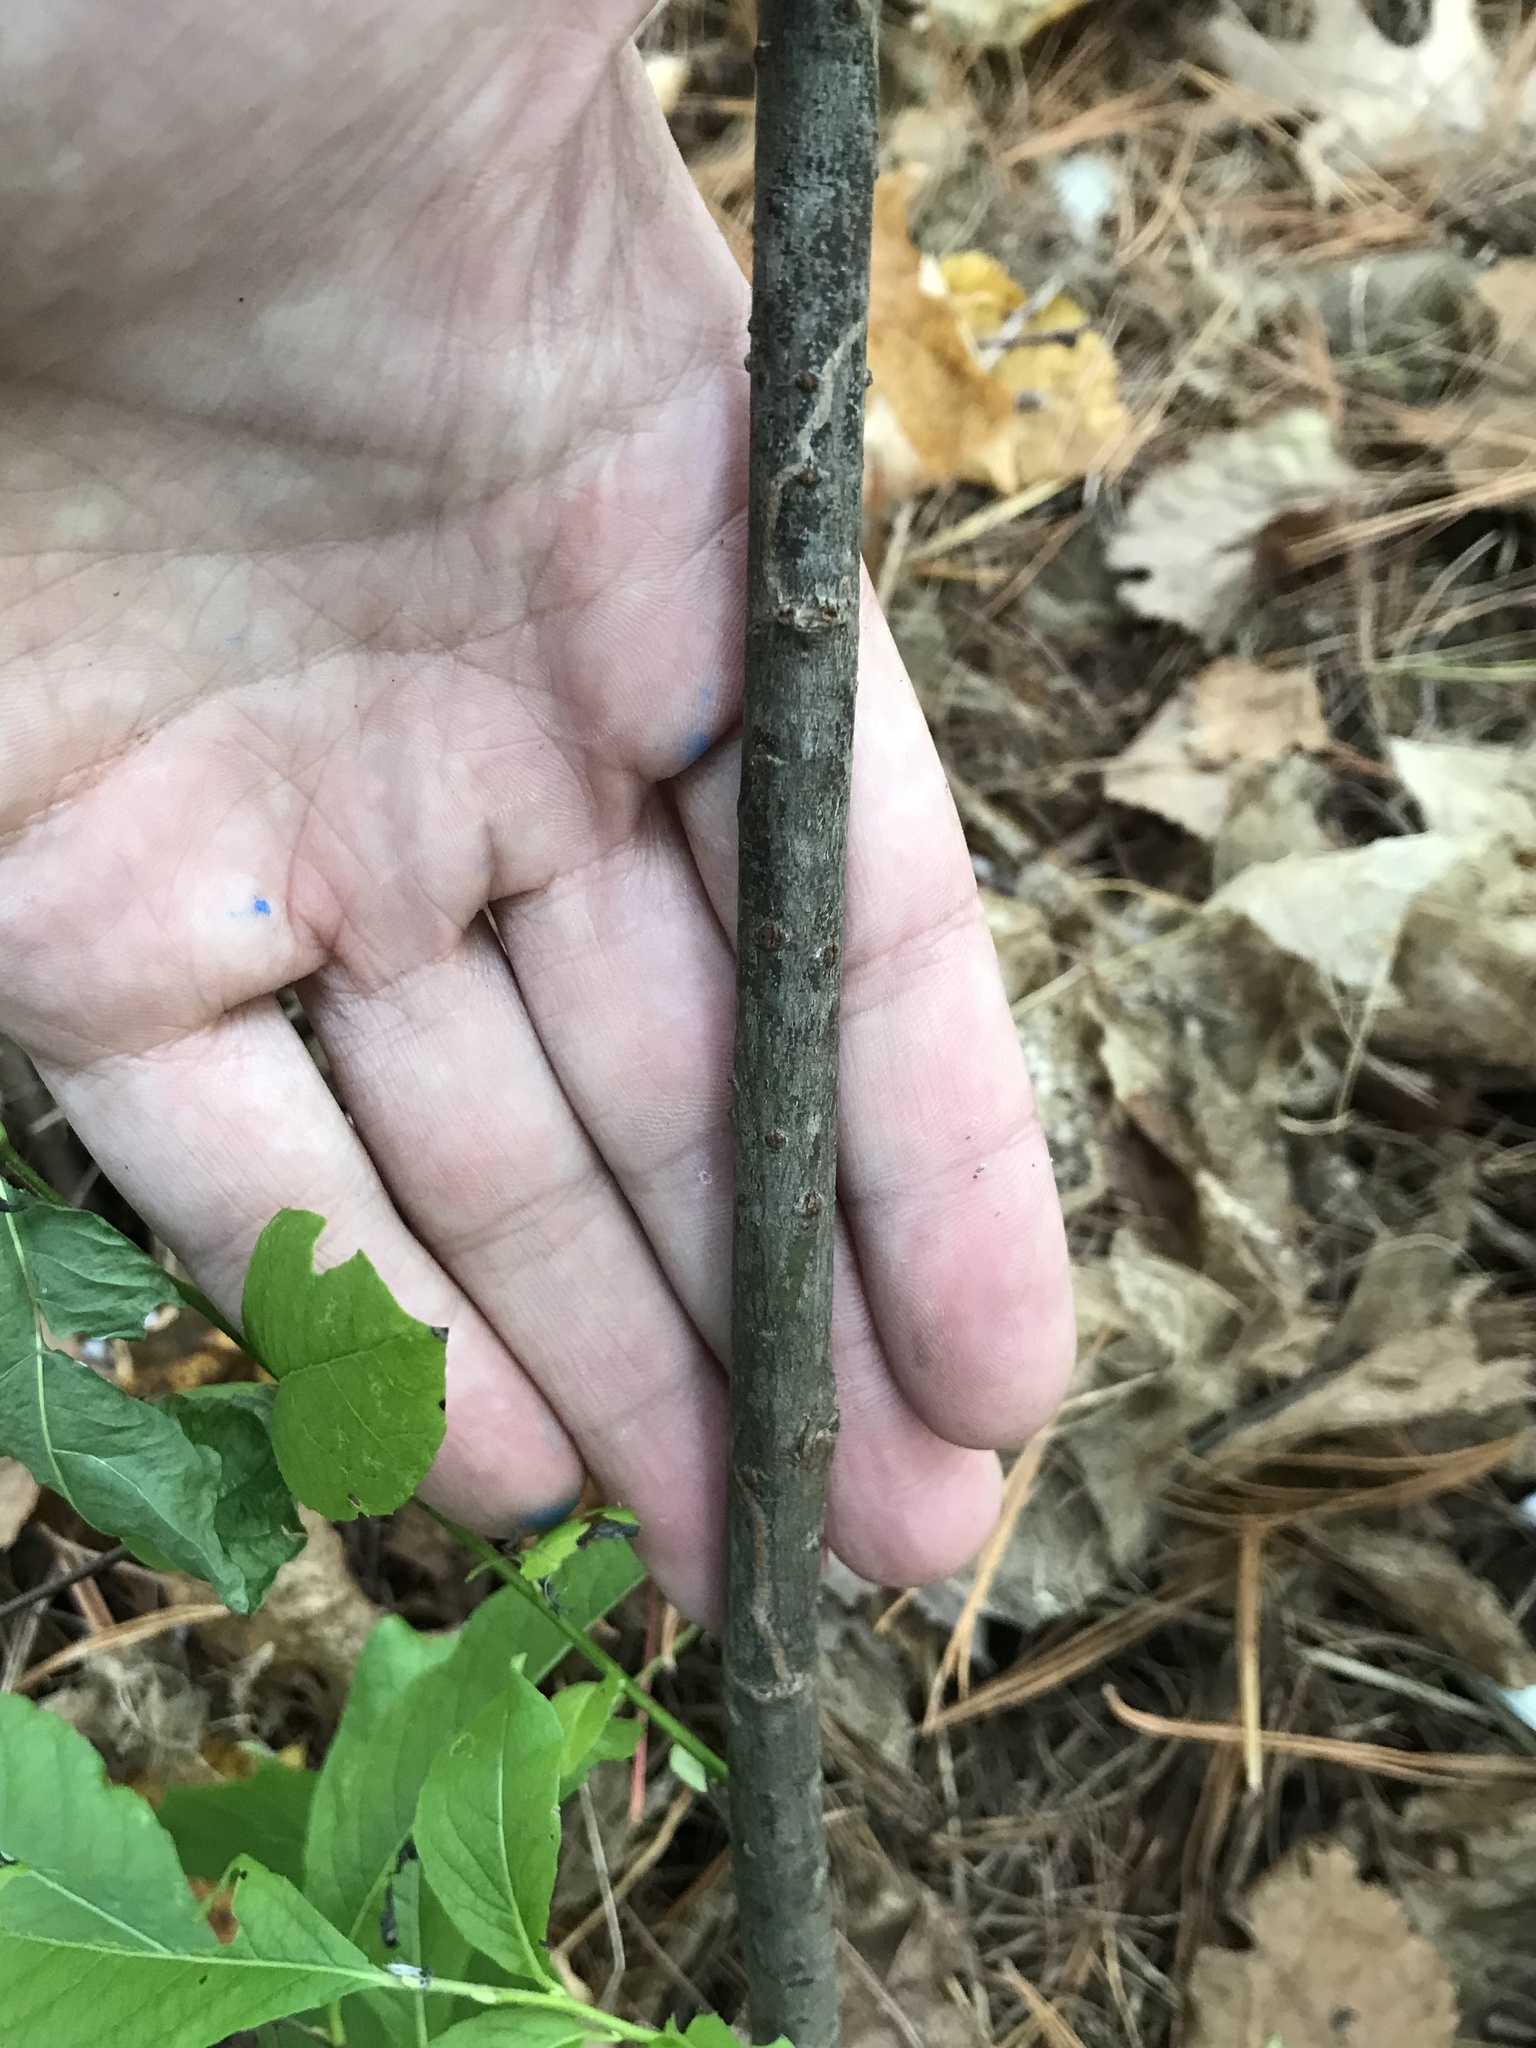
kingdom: Animalia
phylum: Arthropoda
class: Insecta
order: Lepidoptera
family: Gracillariidae
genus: Marmara
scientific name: Marmara salictella
